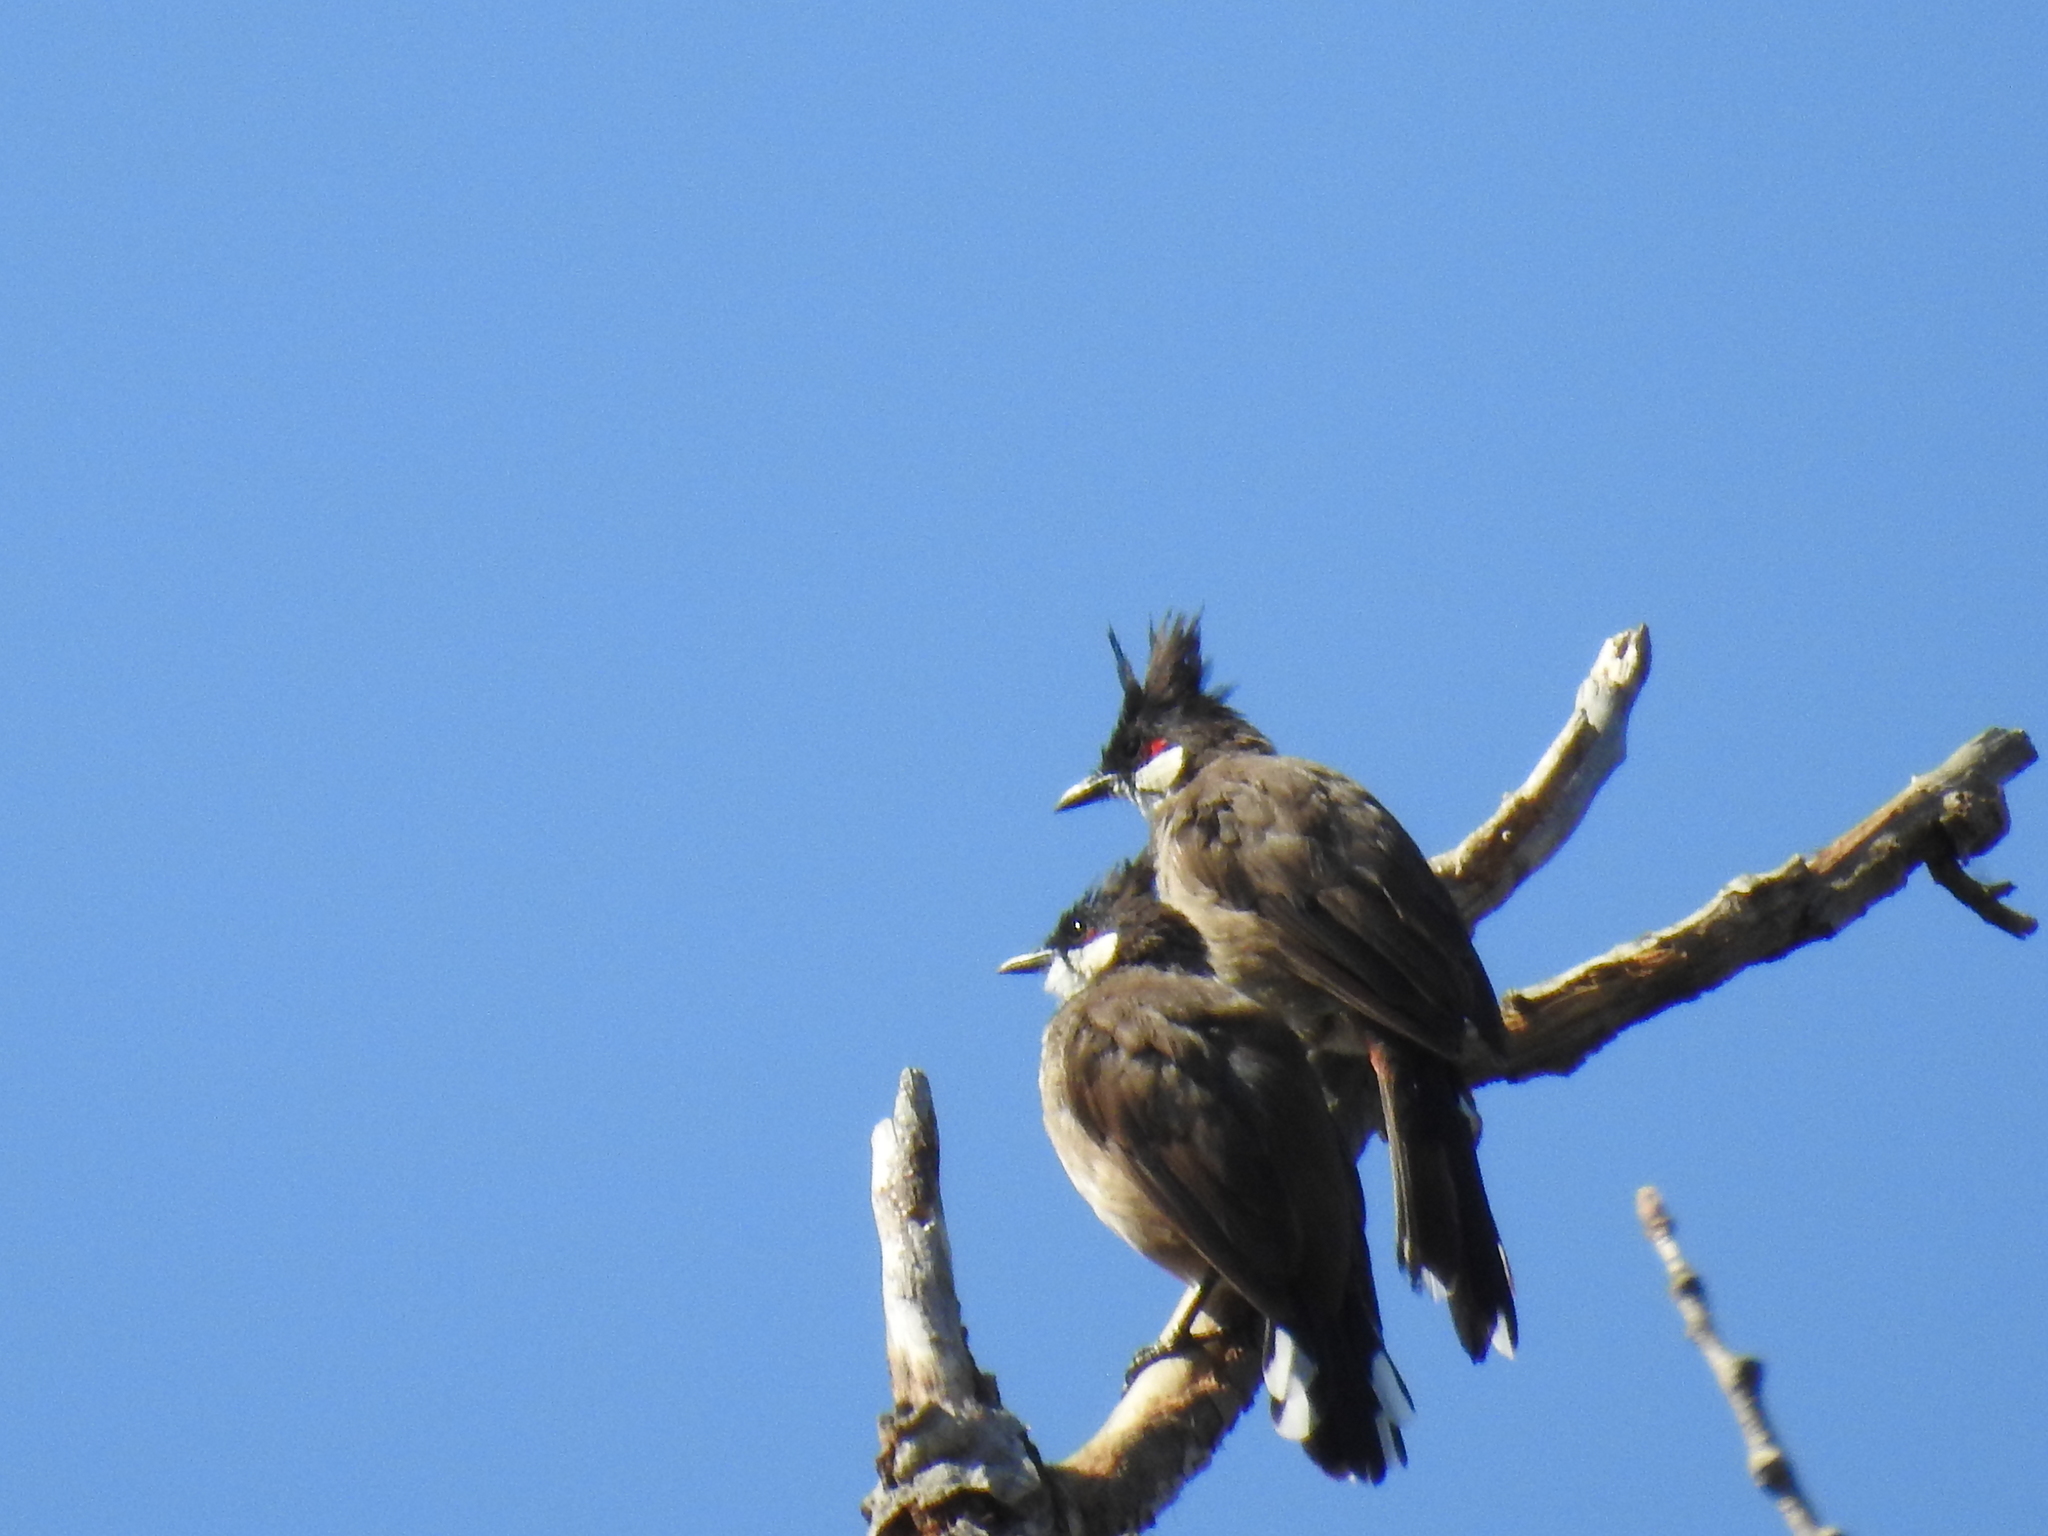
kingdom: Animalia
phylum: Chordata
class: Aves
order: Passeriformes
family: Pycnonotidae
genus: Pycnonotus
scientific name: Pycnonotus jocosus
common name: Red-whiskered bulbul
